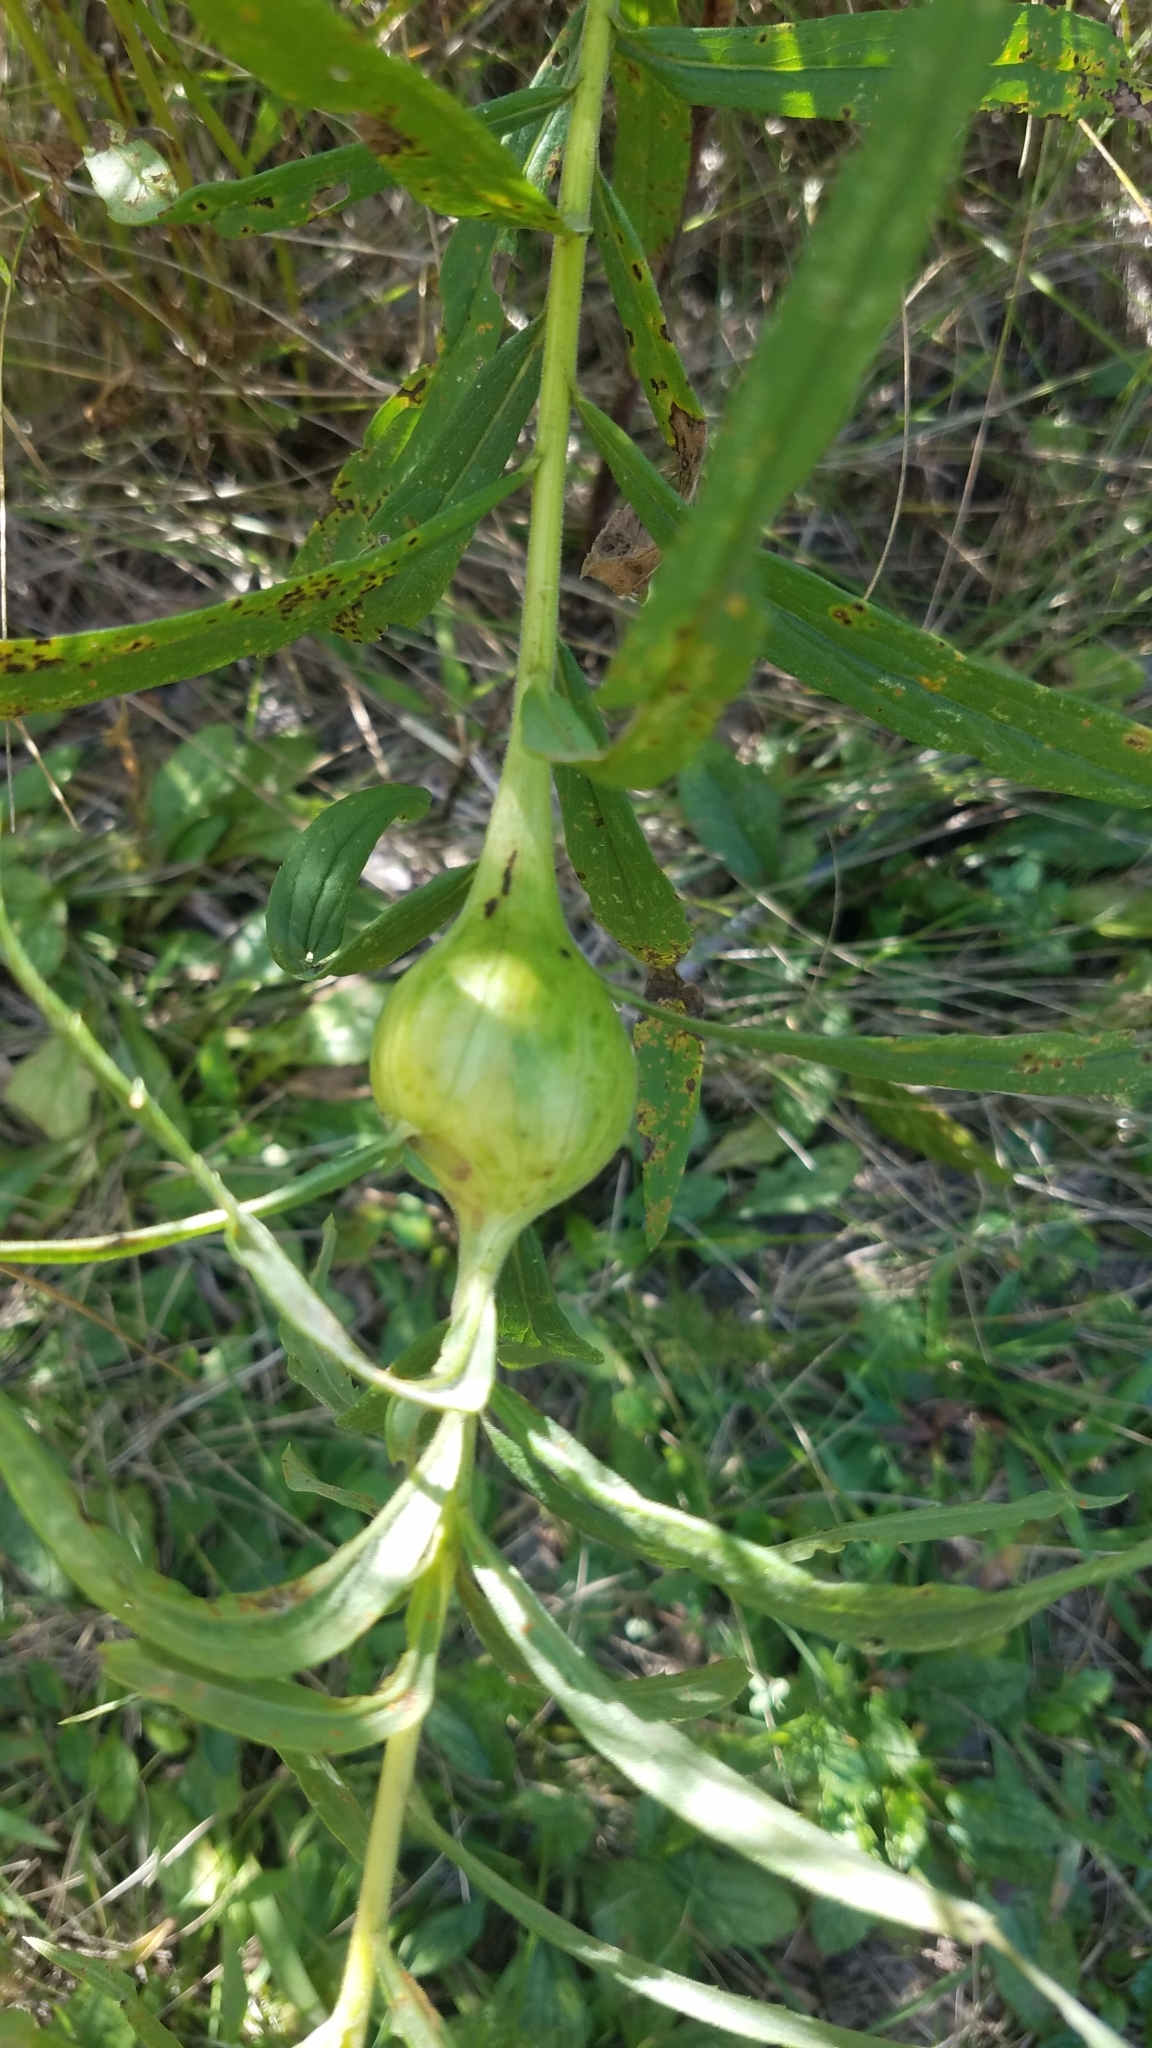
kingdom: Animalia
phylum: Arthropoda
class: Insecta
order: Diptera
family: Tephritidae
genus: Eurosta
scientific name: Eurosta solidaginis
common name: Goldenrod gall fly
